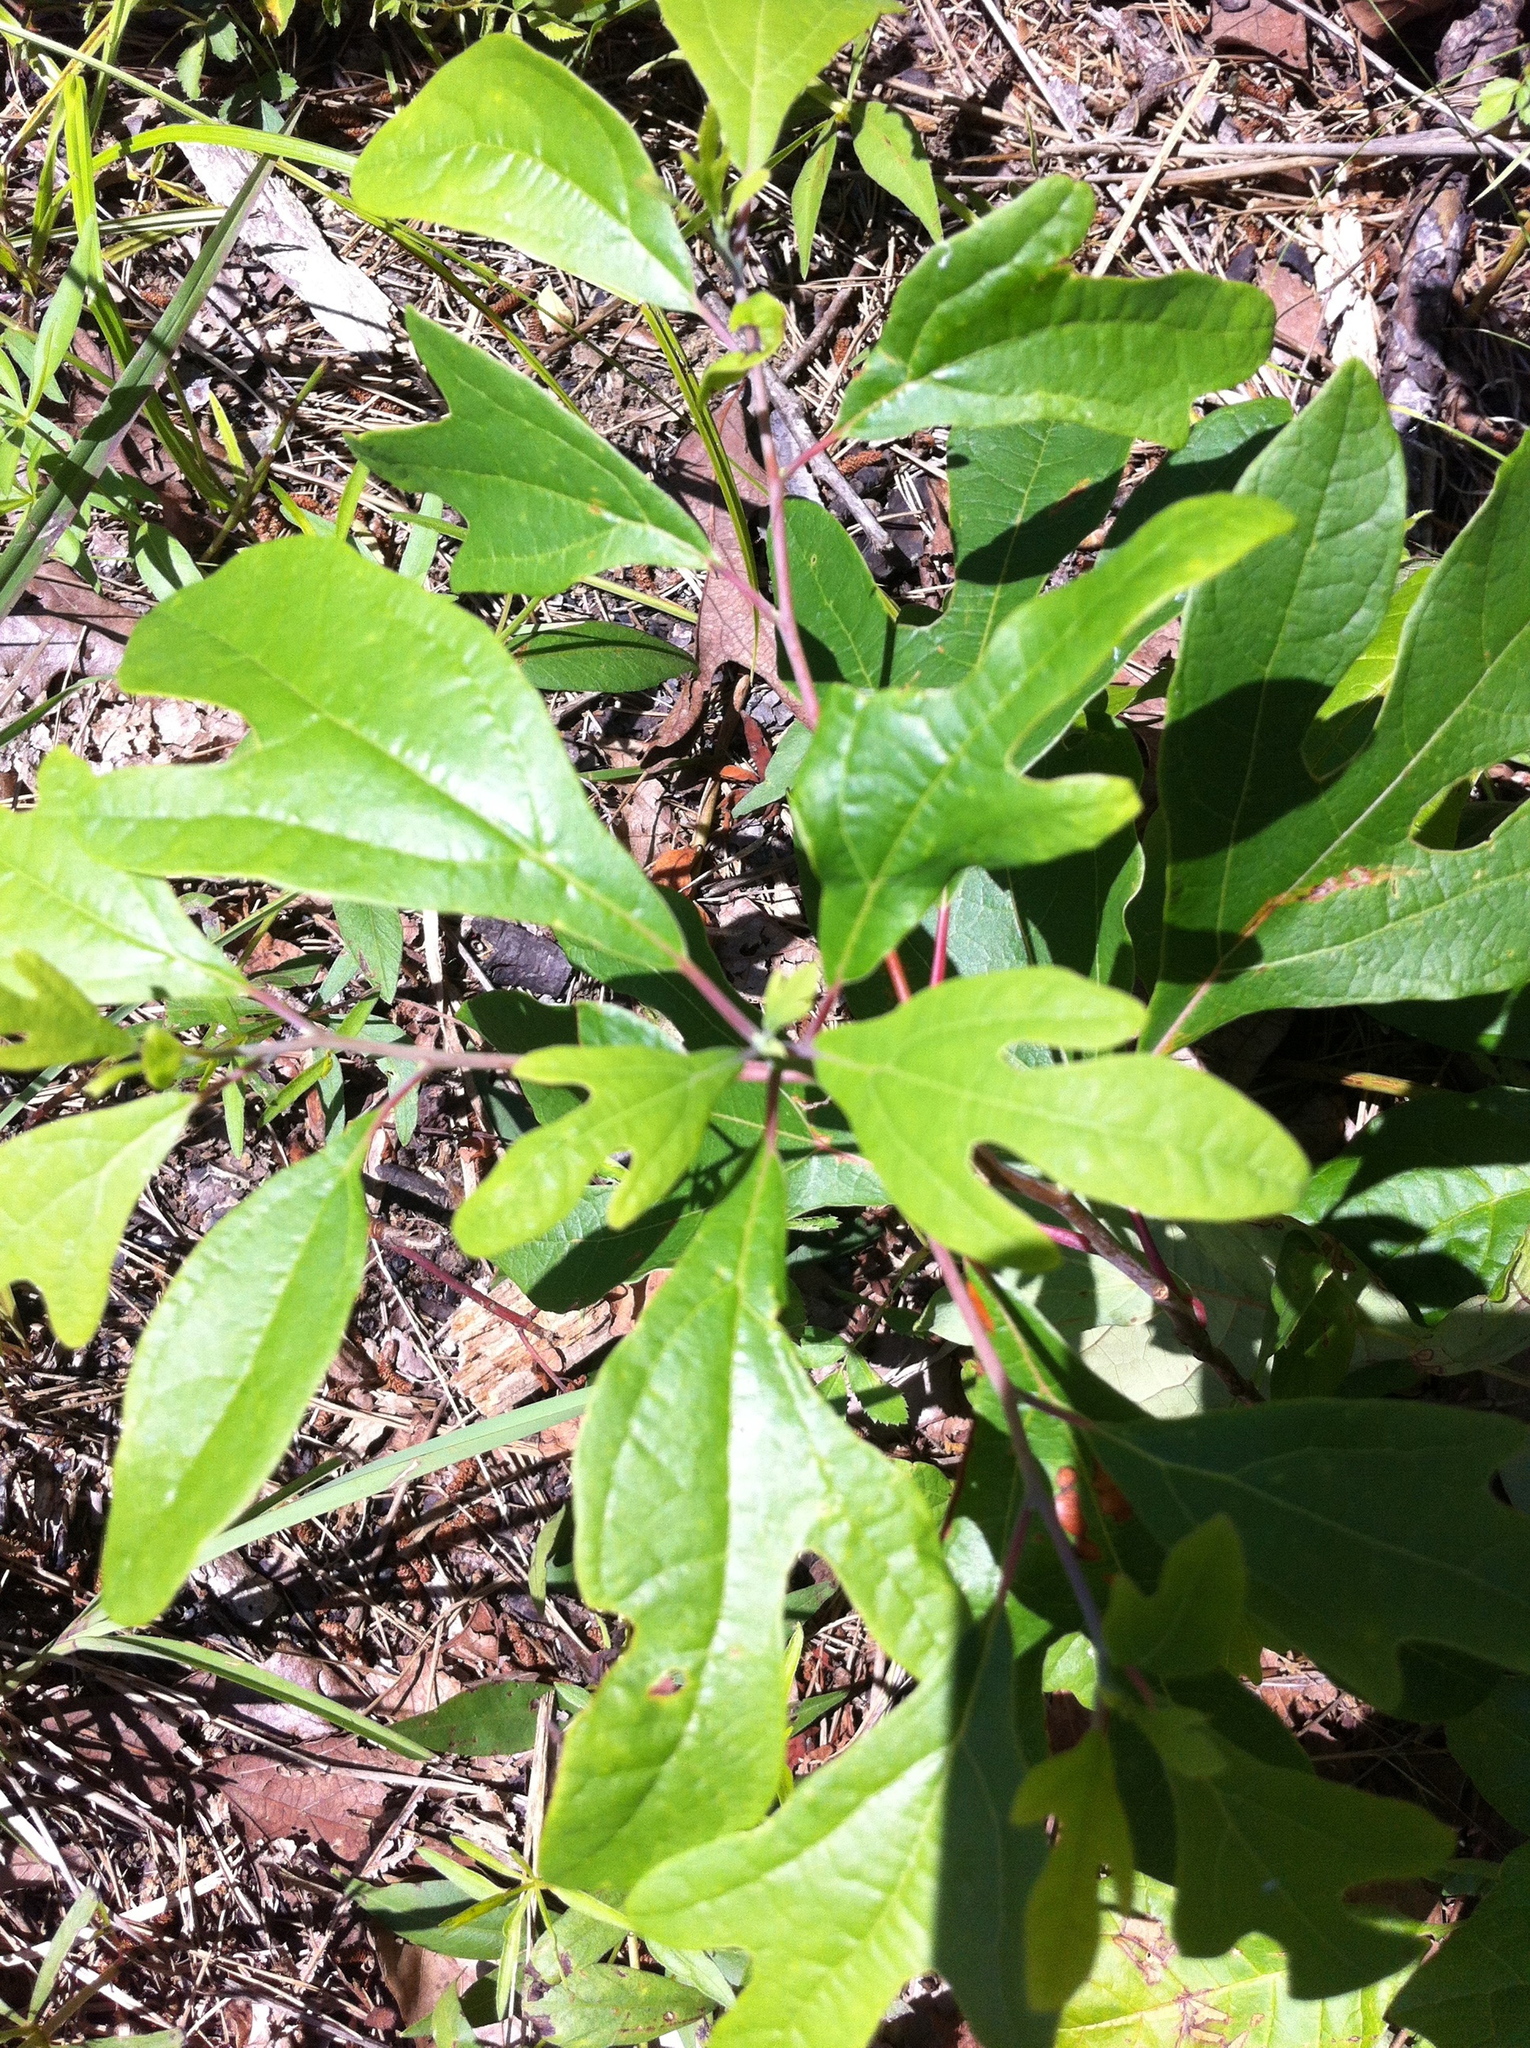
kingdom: Plantae
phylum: Tracheophyta
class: Magnoliopsida
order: Laurales
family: Lauraceae
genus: Sassafras
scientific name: Sassafras albidum
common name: Sassafras
